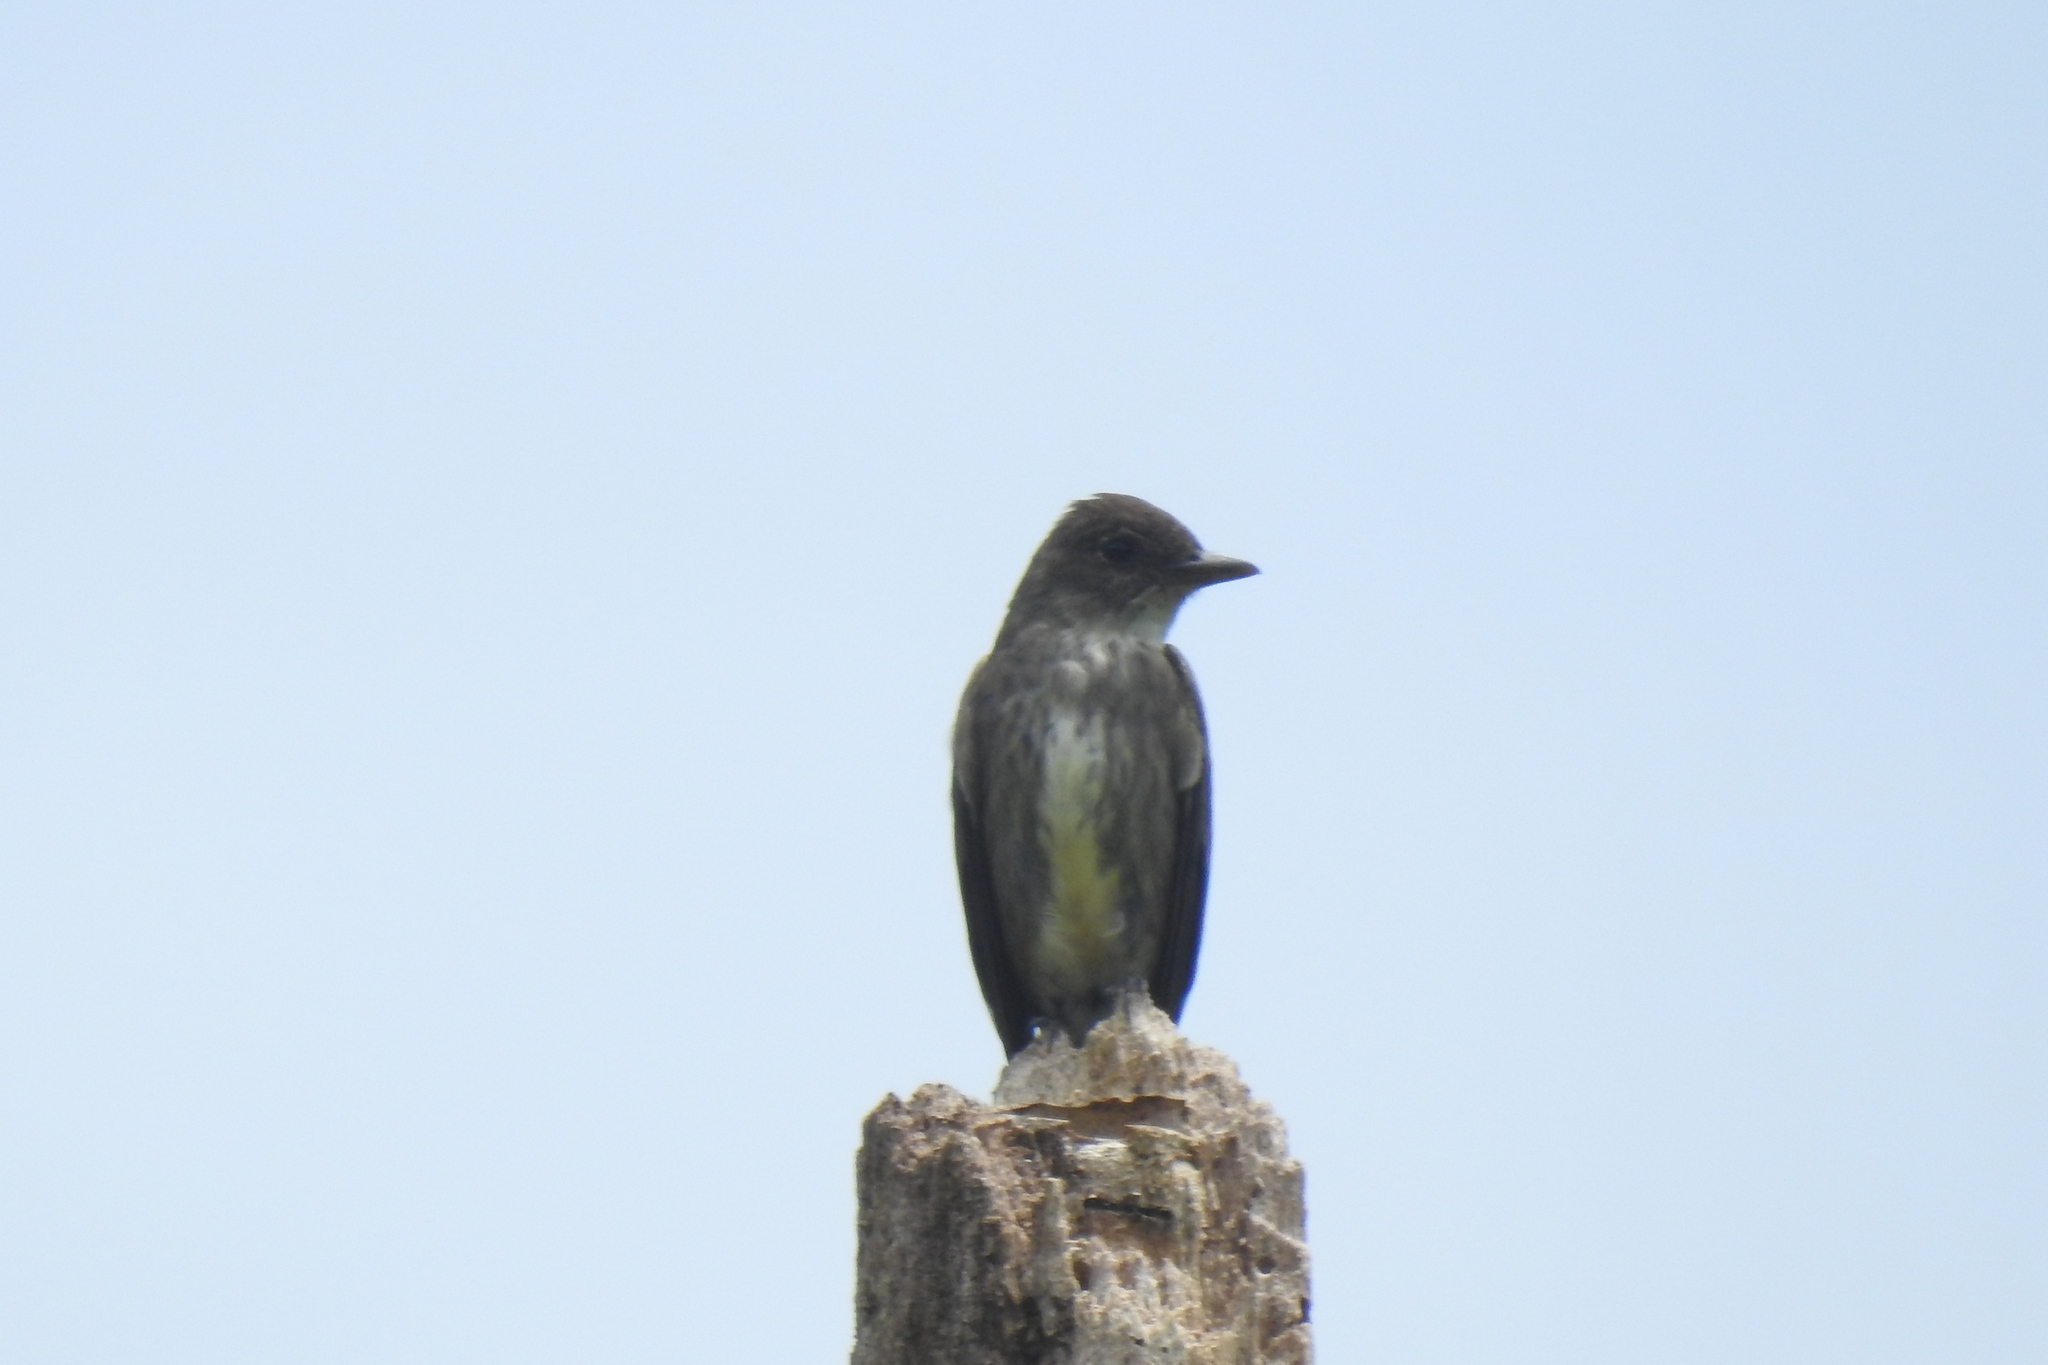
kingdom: Animalia
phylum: Chordata
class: Aves
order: Passeriformes
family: Tyrannidae
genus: Contopus
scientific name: Contopus cooperi
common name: Olive-sided flycatcher
